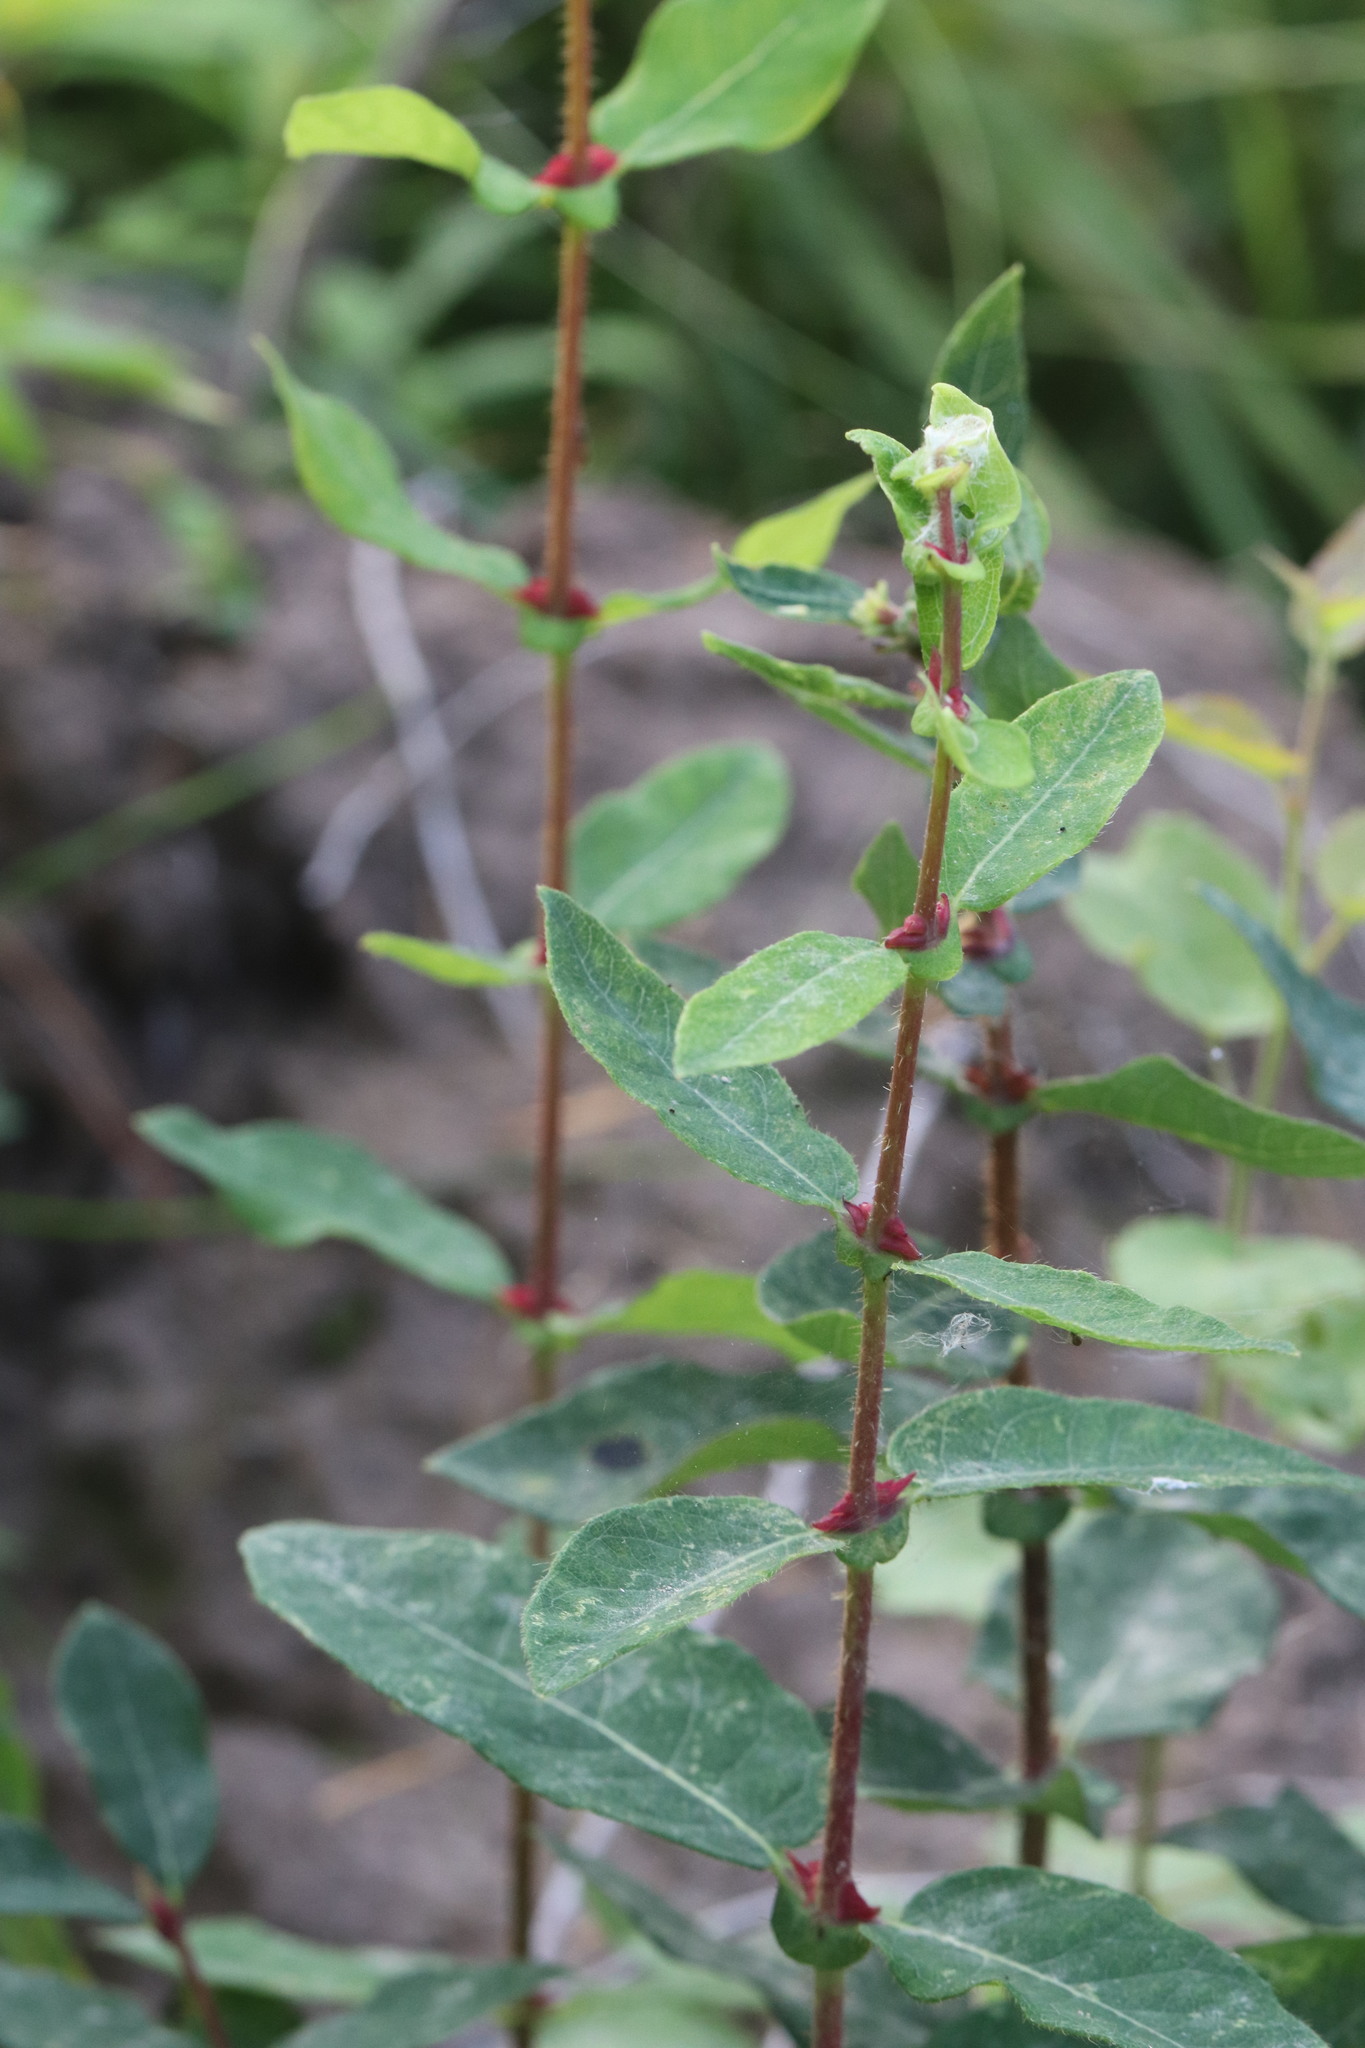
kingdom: Plantae
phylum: Tracheophyta
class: Magnoliopsida
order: Dipsacales
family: Caprifoliaceae
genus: Lonicera
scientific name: Lonicera caerulea
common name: Blue honeysuckle
